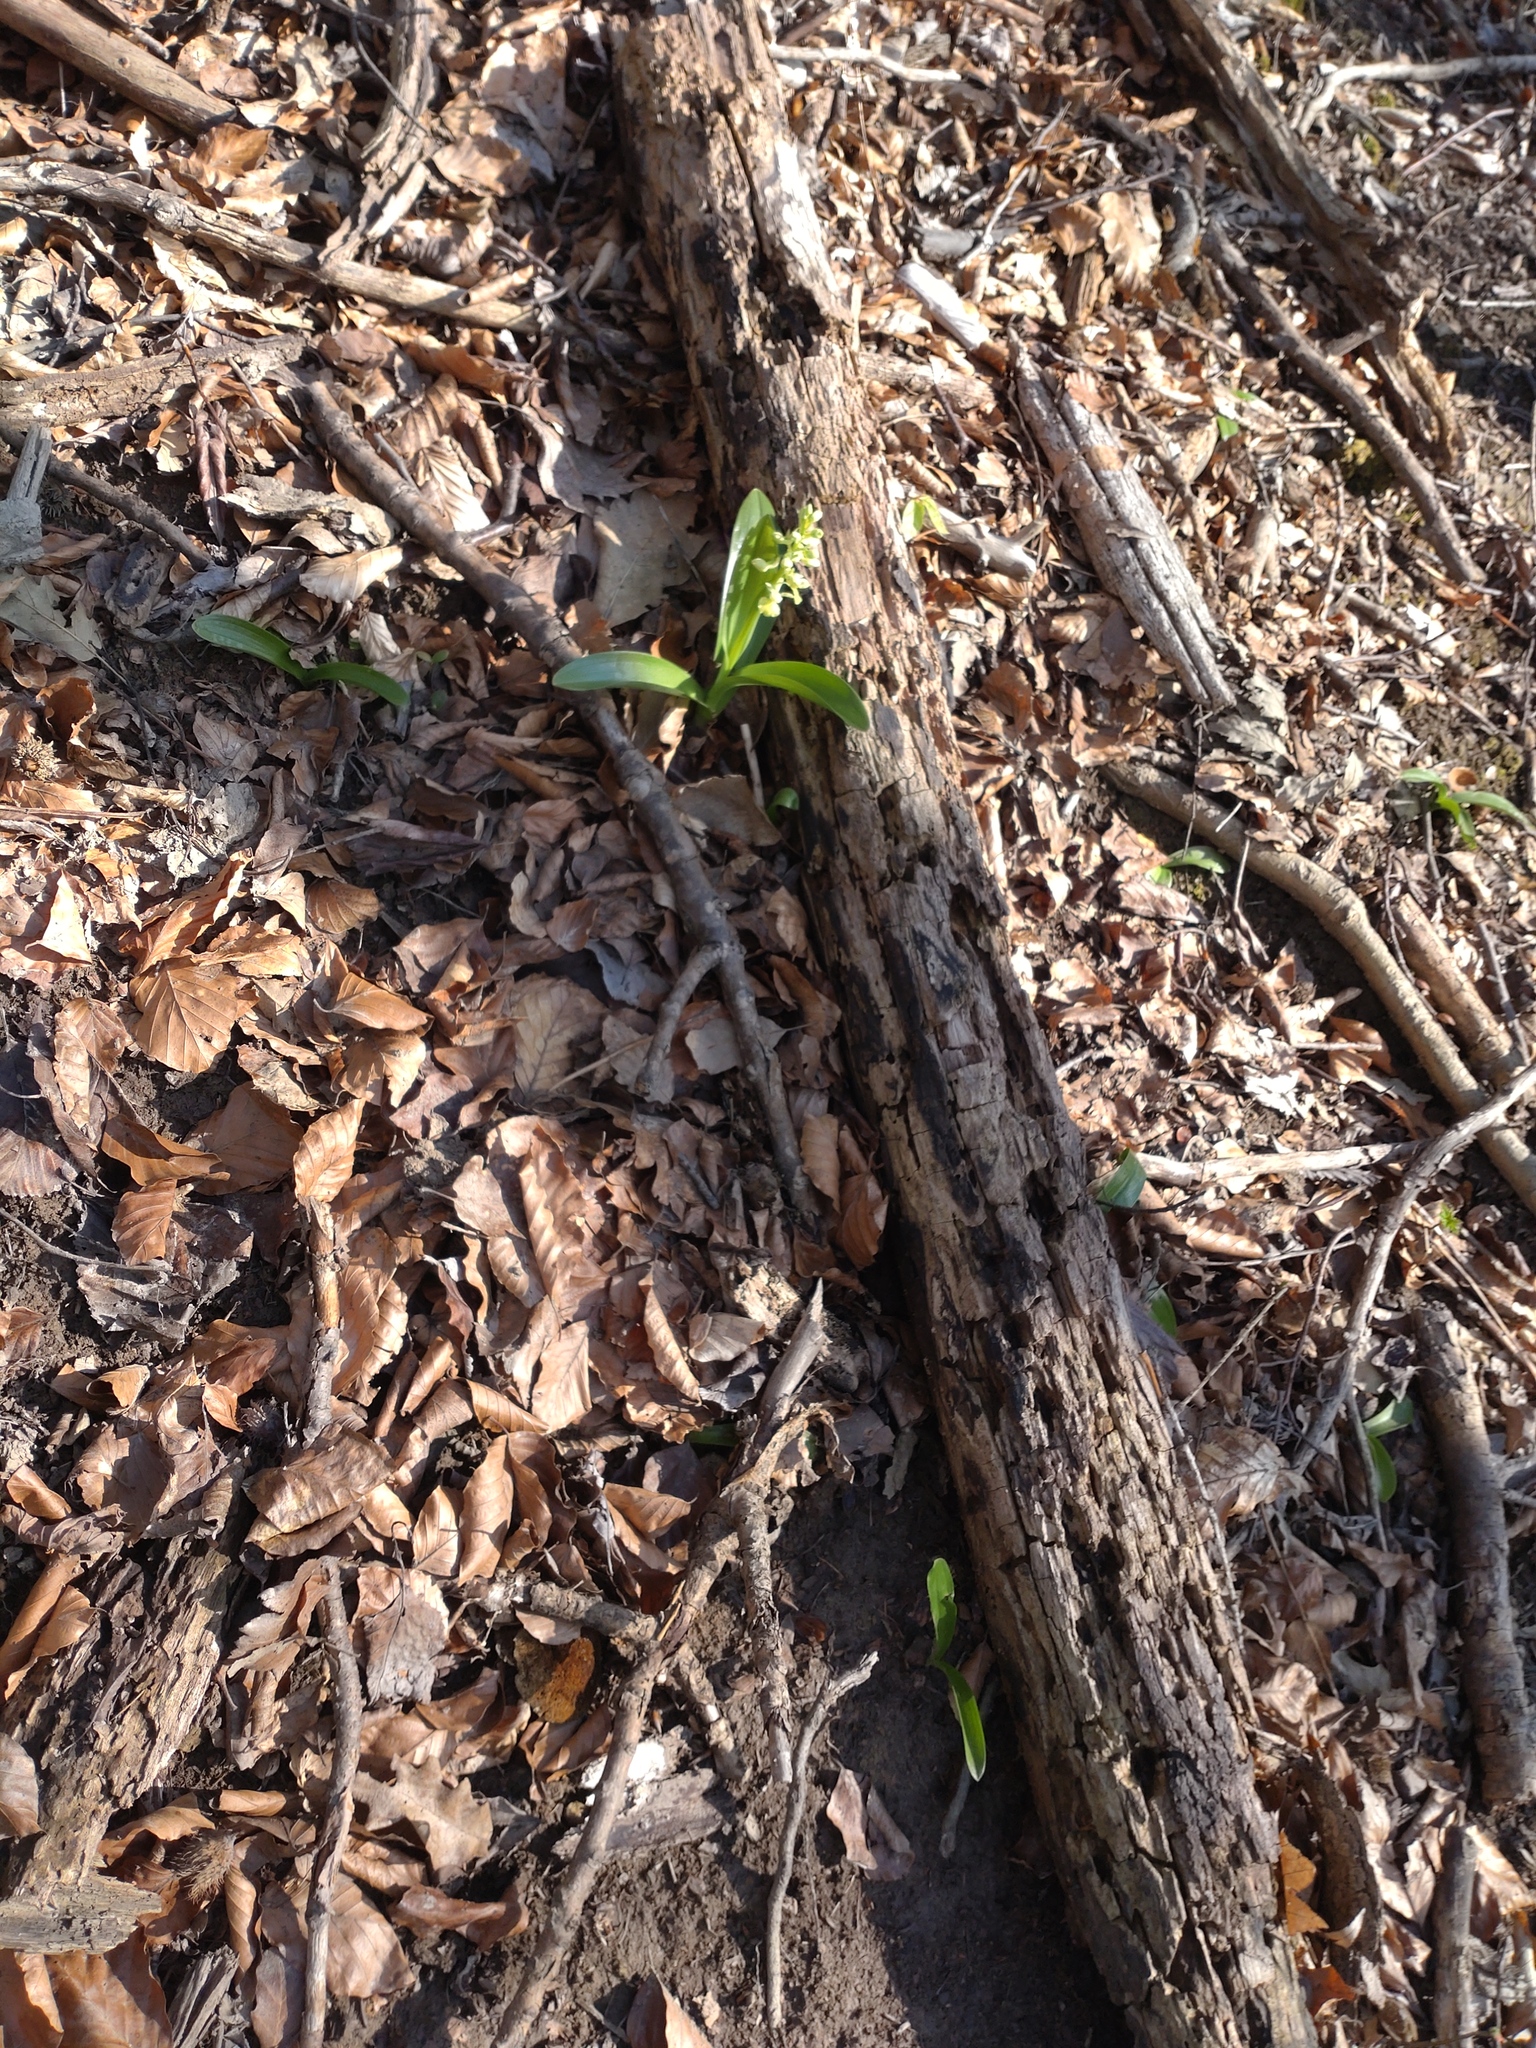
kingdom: Plantae
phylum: Tracheophyta
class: Liliopsida
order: Asparagales
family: Orchidaceae
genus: Orchis
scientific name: Orchis pallens
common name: Pale-flowered orchid
